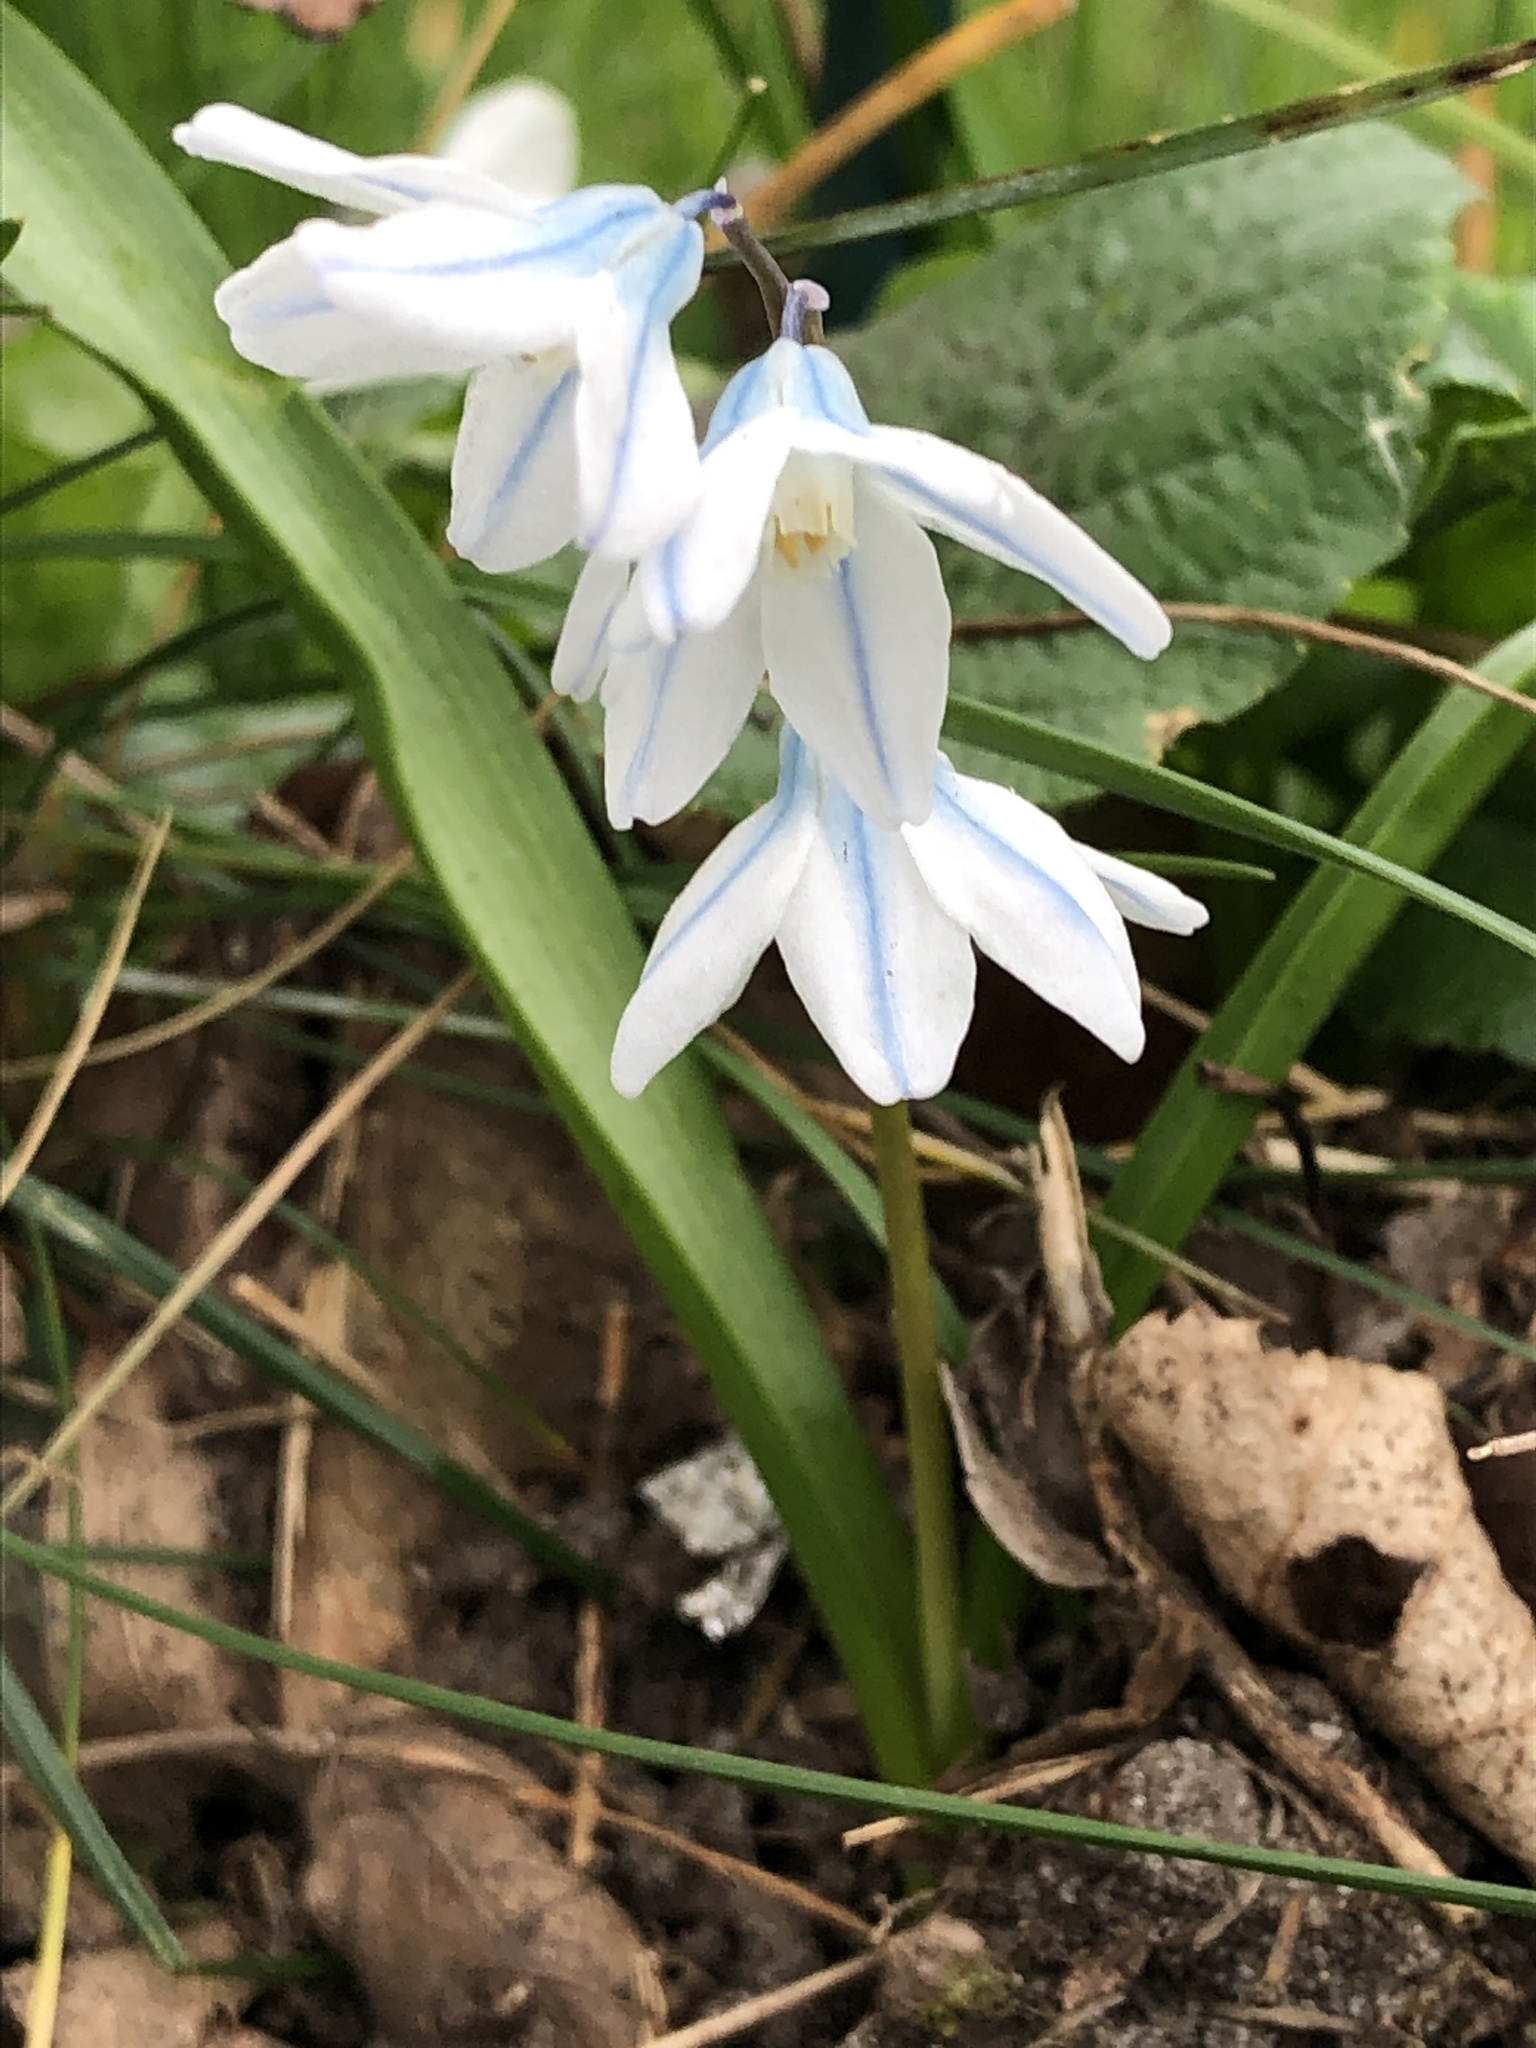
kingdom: Plantae
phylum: Tracheophyta
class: Liliopsida
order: Asparagales
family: Asparagaceae
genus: Puschkinia
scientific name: Puschkinia scilloides
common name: Striped squill
